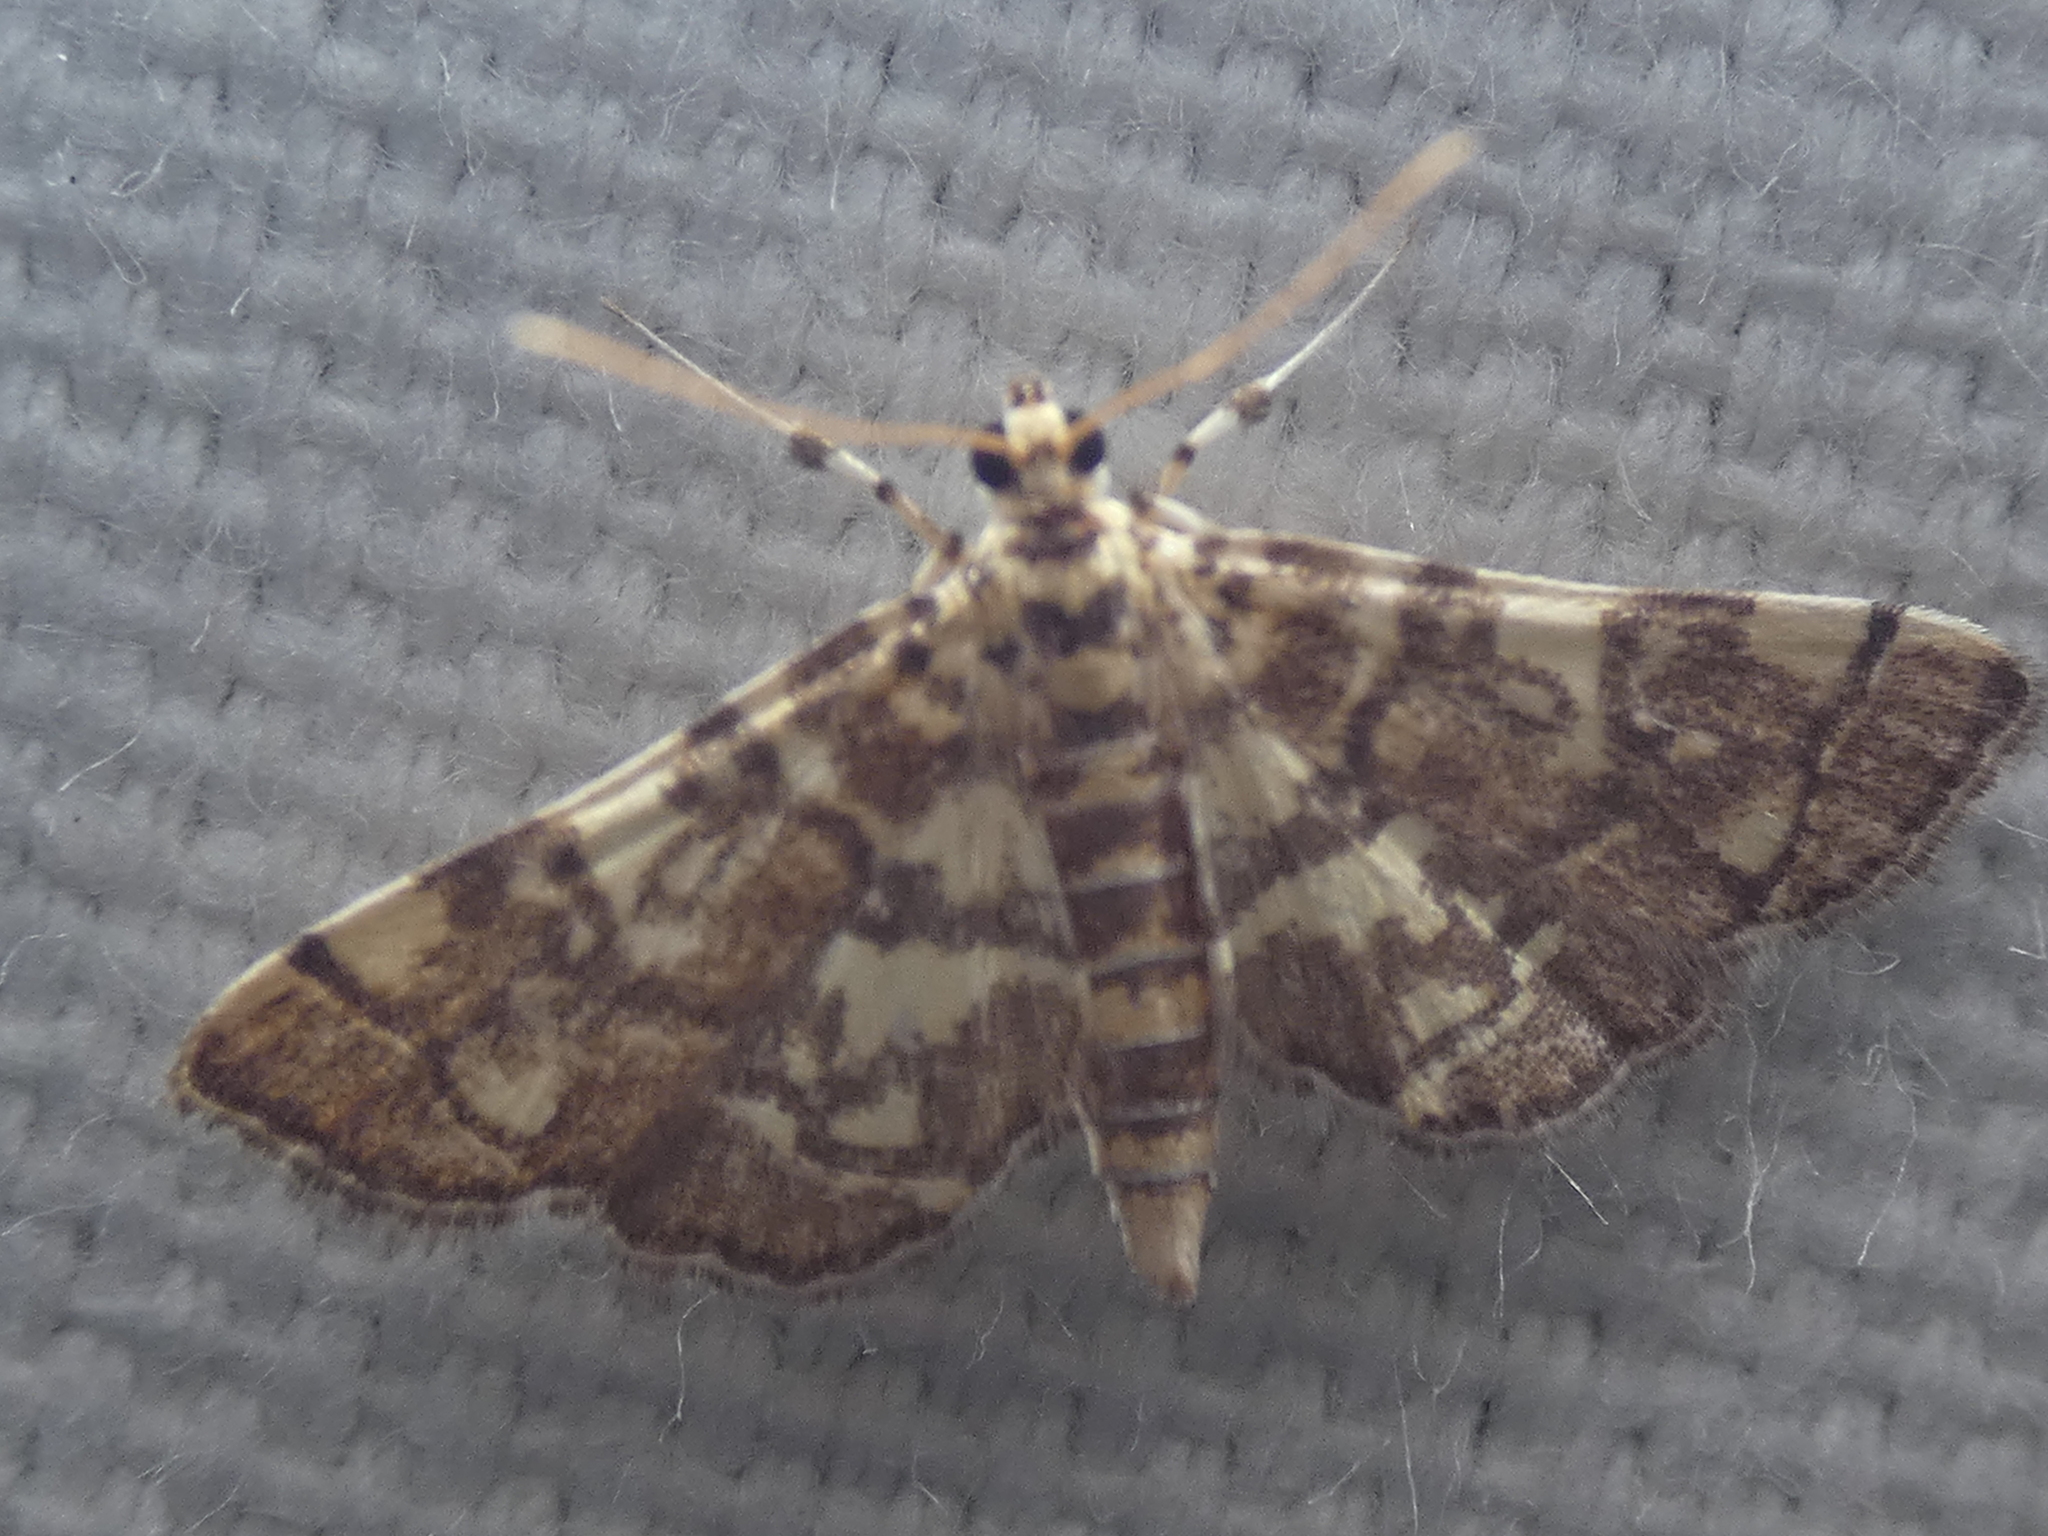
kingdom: Animalia
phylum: Arthropoda
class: Insecta
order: Lepidoptera
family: Crambidae
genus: Apogeshna
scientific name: Apogeshna stenialis
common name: Checkered apogeshna moth
